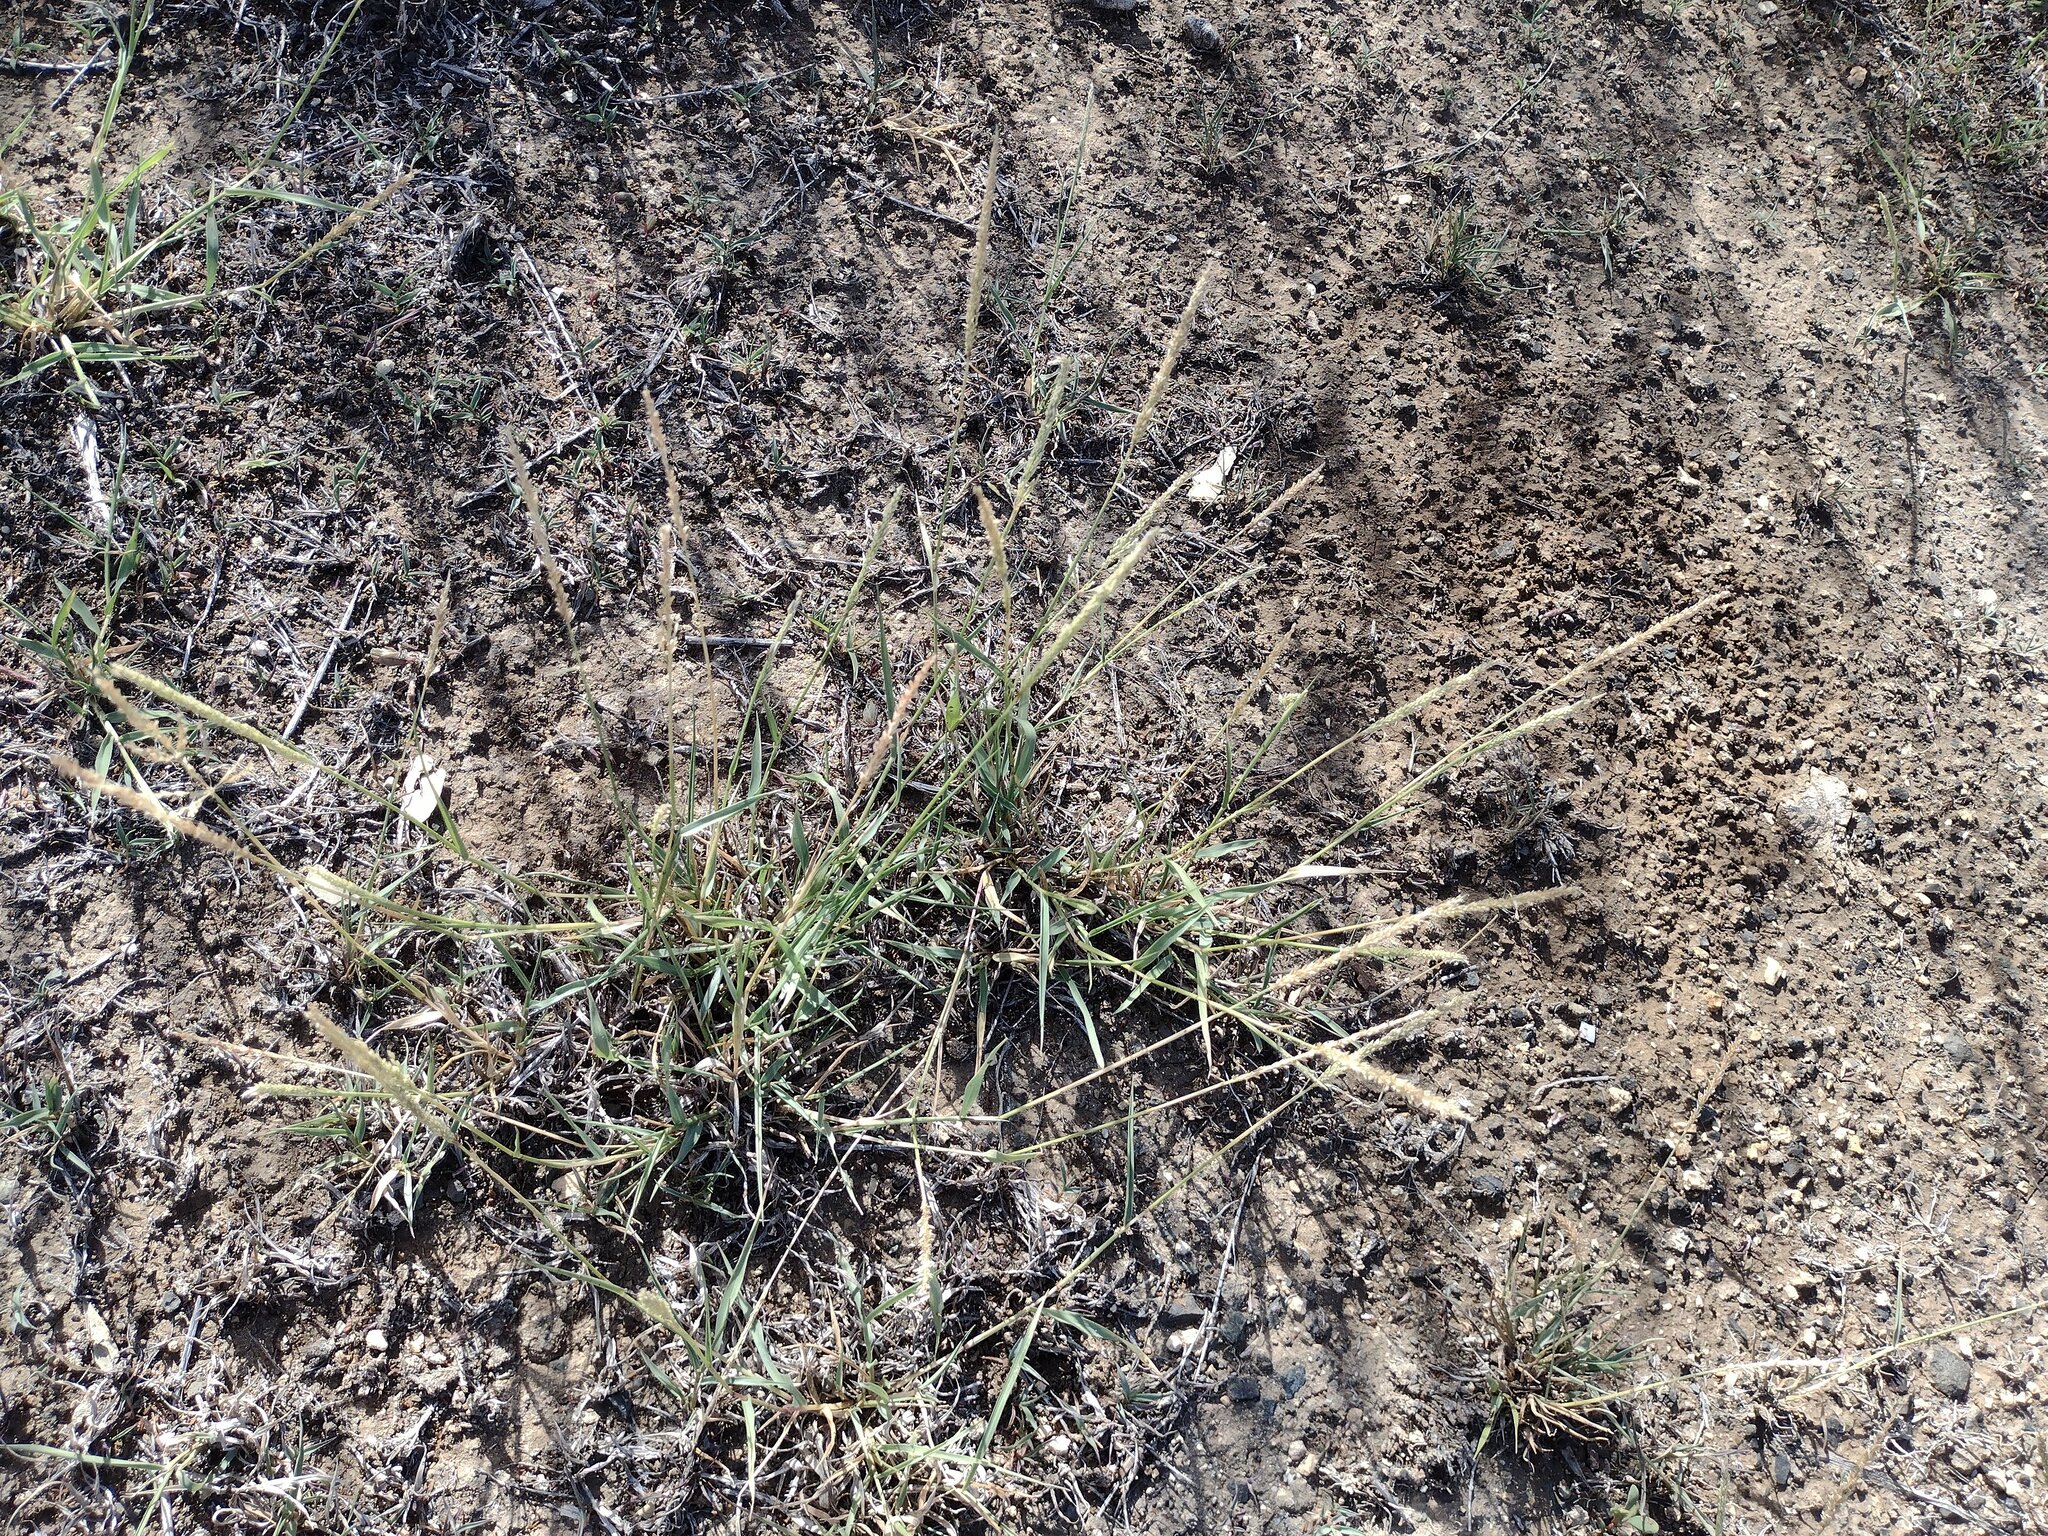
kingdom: Plantae
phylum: Tracheophyta
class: Liliopsida
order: Poales
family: Poaceae
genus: Sporobolus
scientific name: Sporobolus pyramidatus
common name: Whorled dropseed
